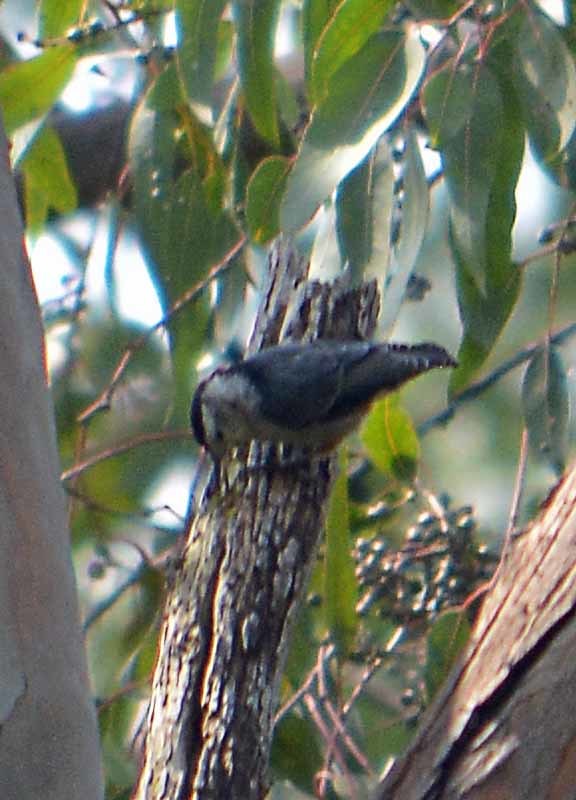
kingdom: Animalia
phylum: Chordata
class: Aves
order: Passeriformes
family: Sittidae
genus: Sitta
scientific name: Sitta carolinensis
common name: White-breasted nuthatch
